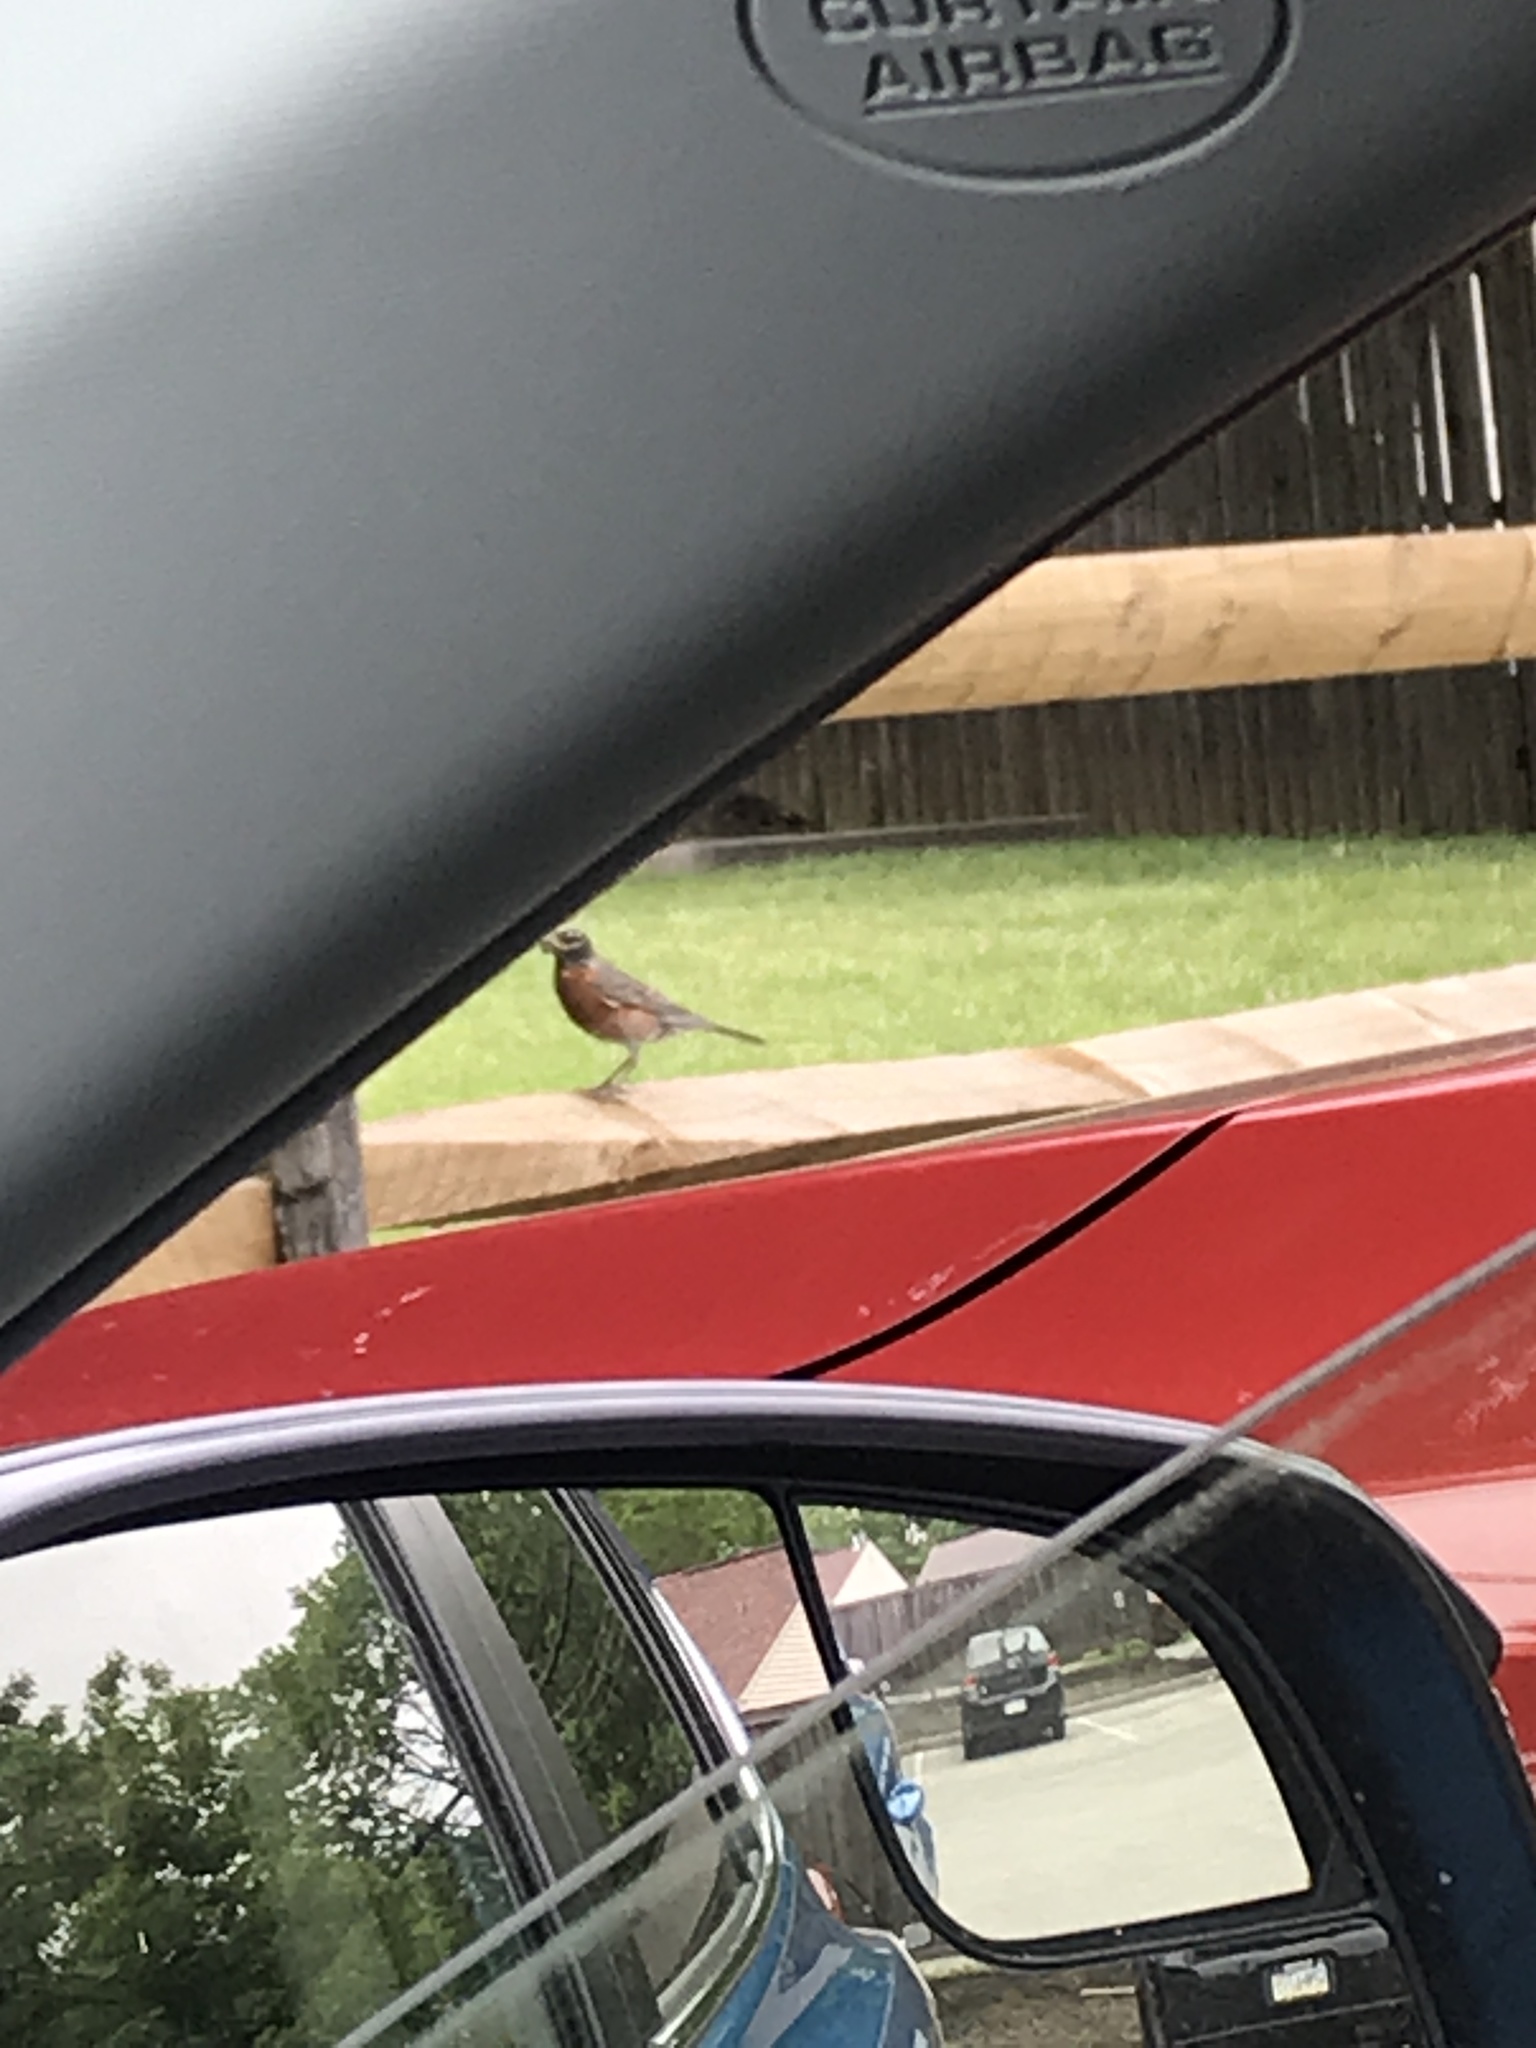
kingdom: Animalia
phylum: Chordata
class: Aves
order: Passeriformes
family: Turdidae
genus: Turdus
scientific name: Turdus migratorius
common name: American robin
